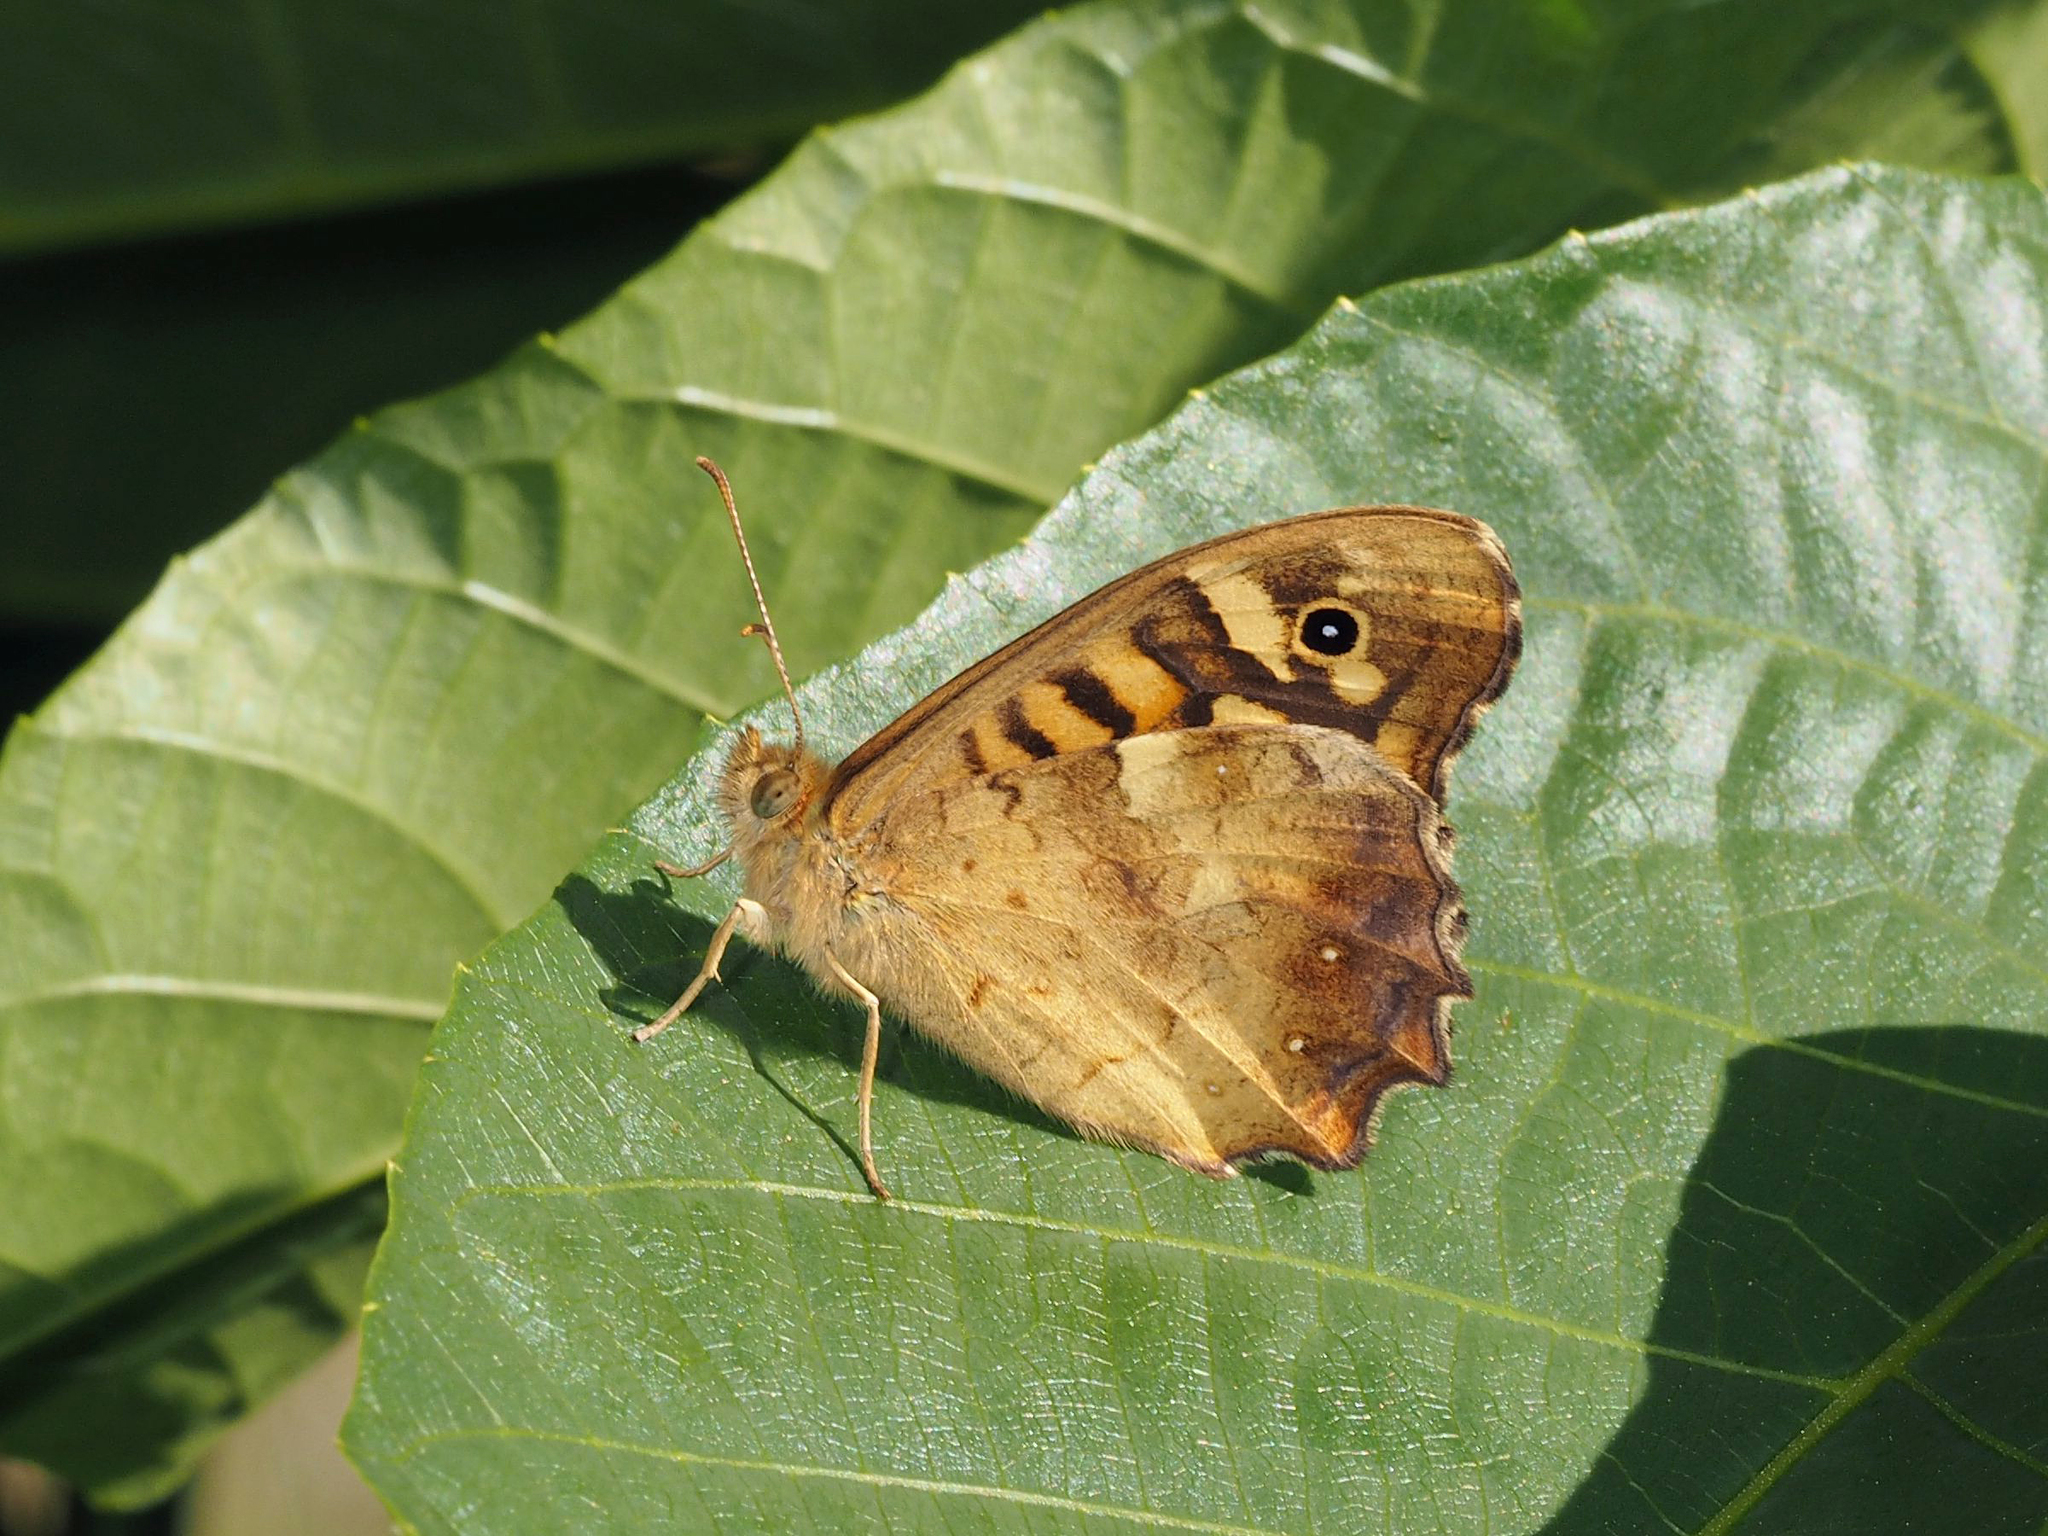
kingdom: Animalia
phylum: Arthropoda
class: Insecta
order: Lepidoptera
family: Nymphalidae
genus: Pararge
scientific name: Pararge aegeria
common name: Speckled wood
